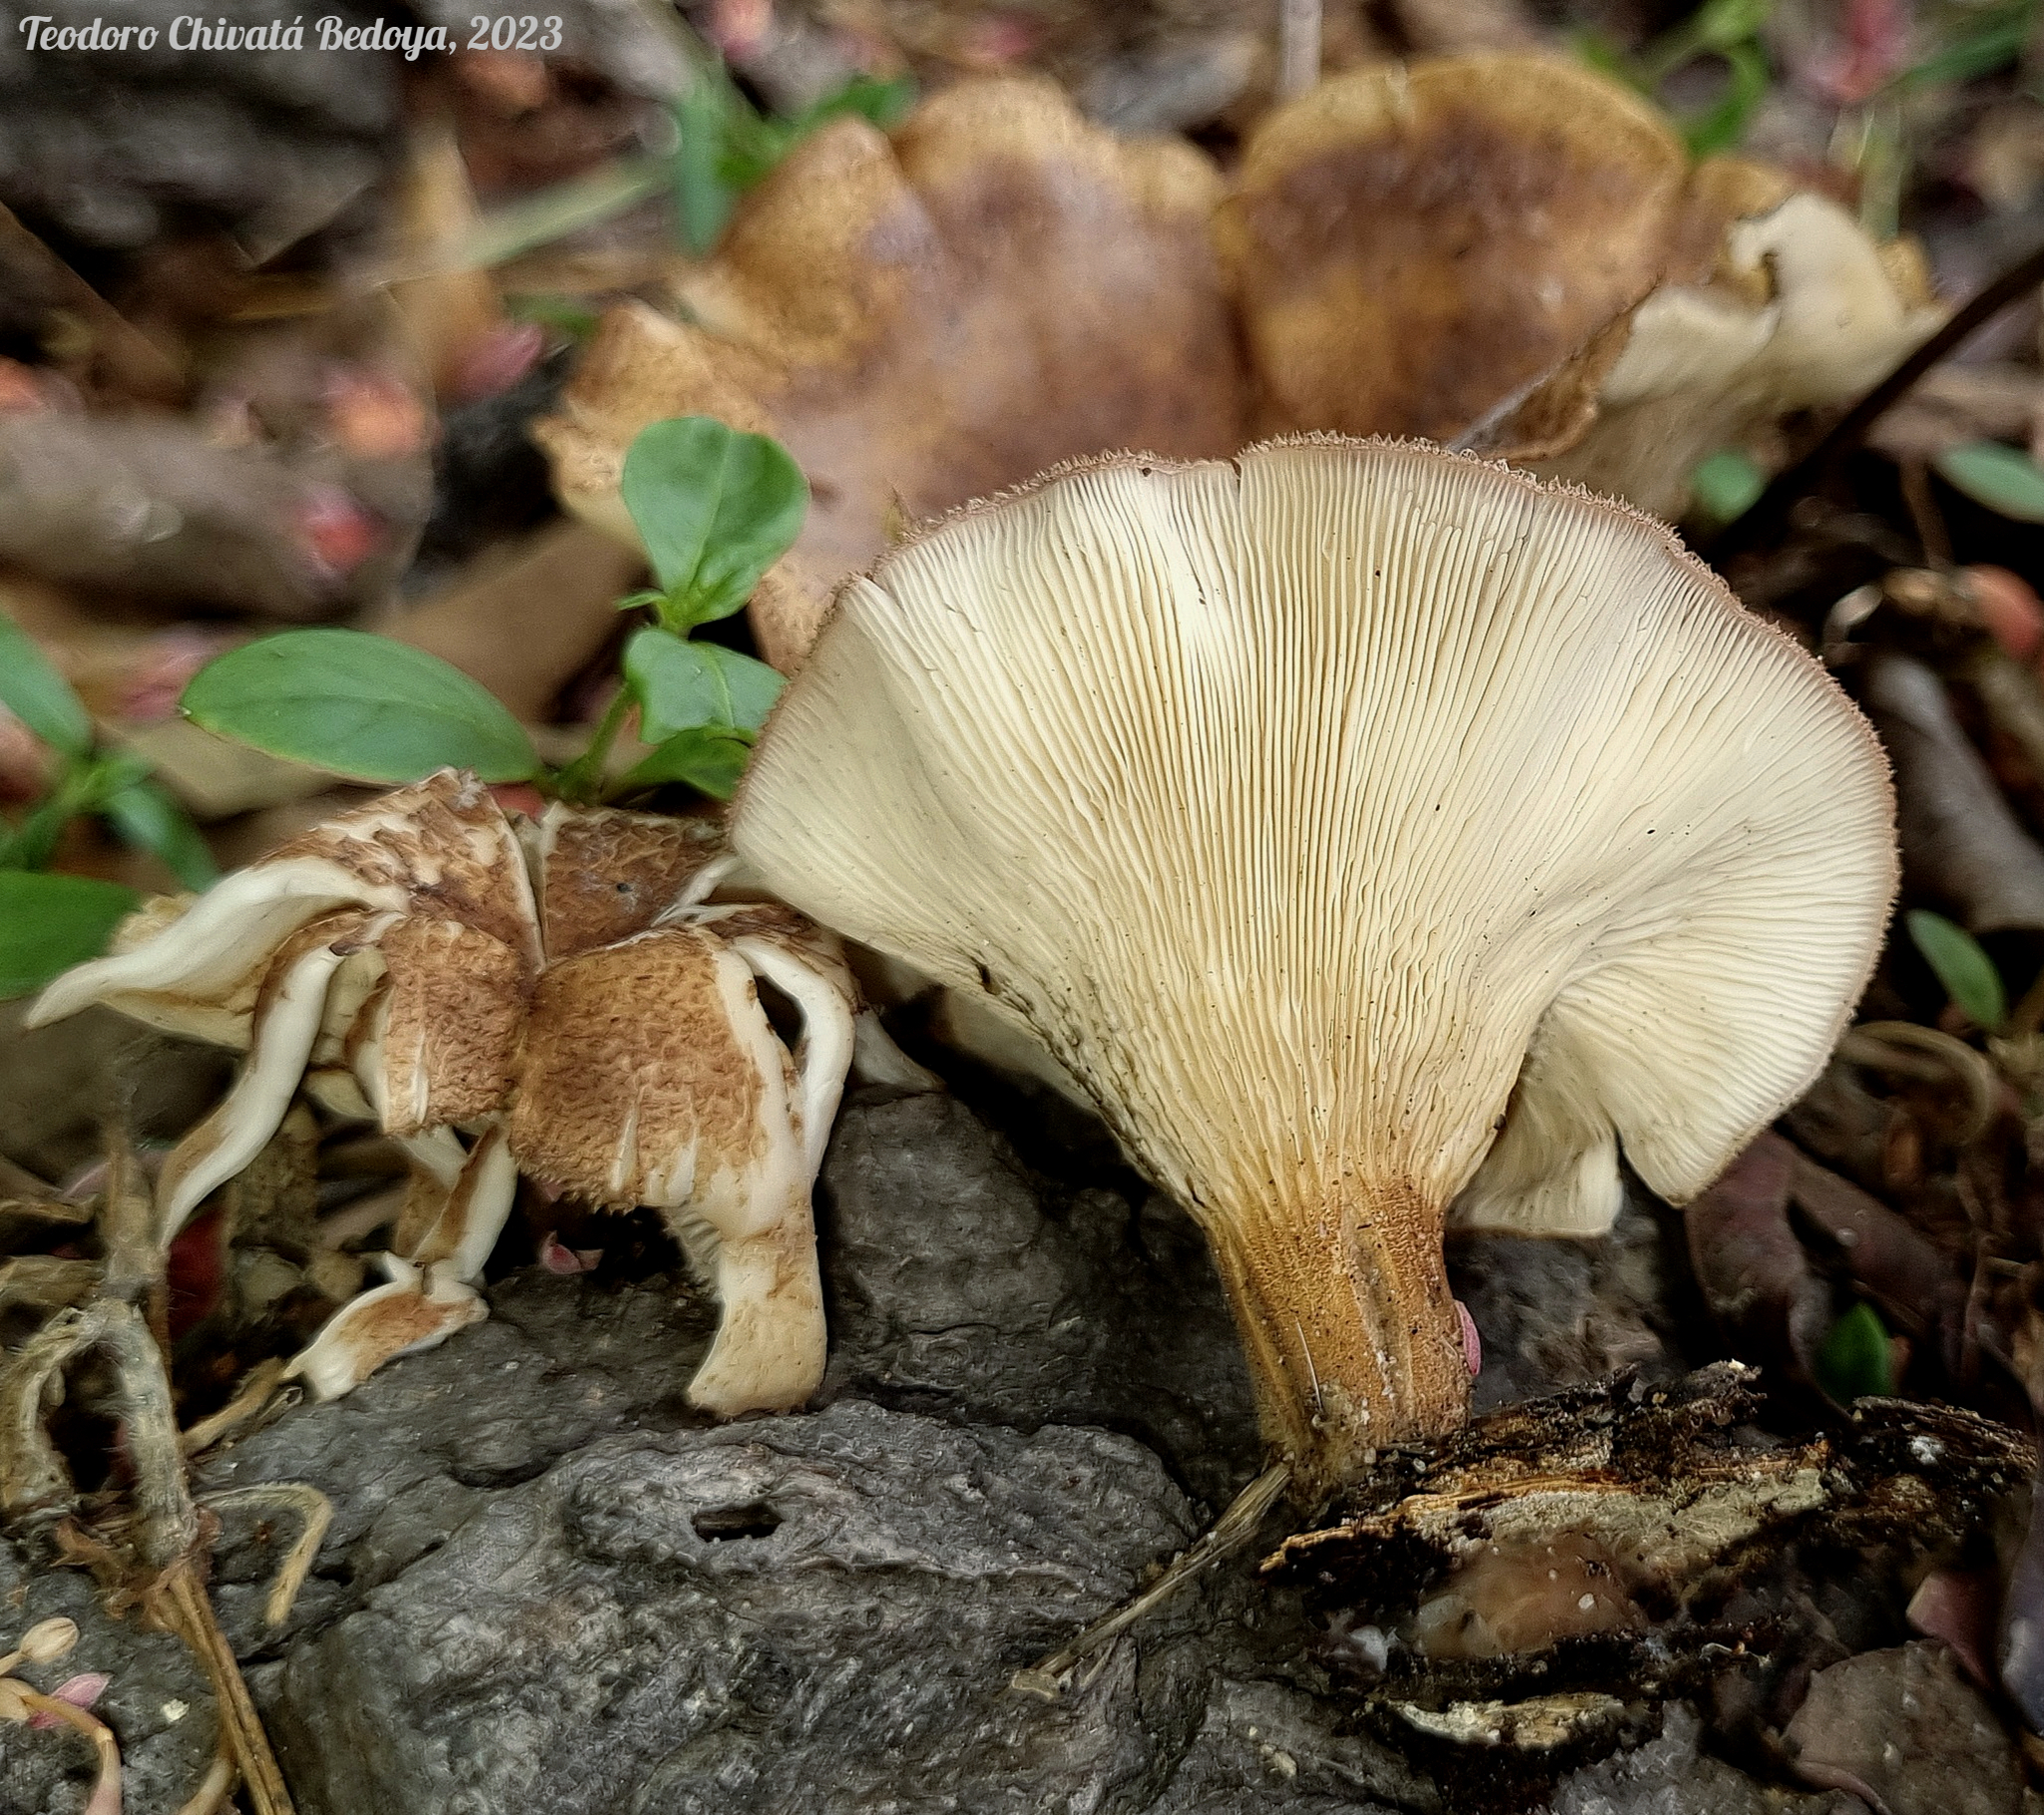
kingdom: Fungi
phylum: Basidiomycota
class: Agaricomycetes
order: Polyporales
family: Panaceae
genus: Panus
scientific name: Panus strigellus
